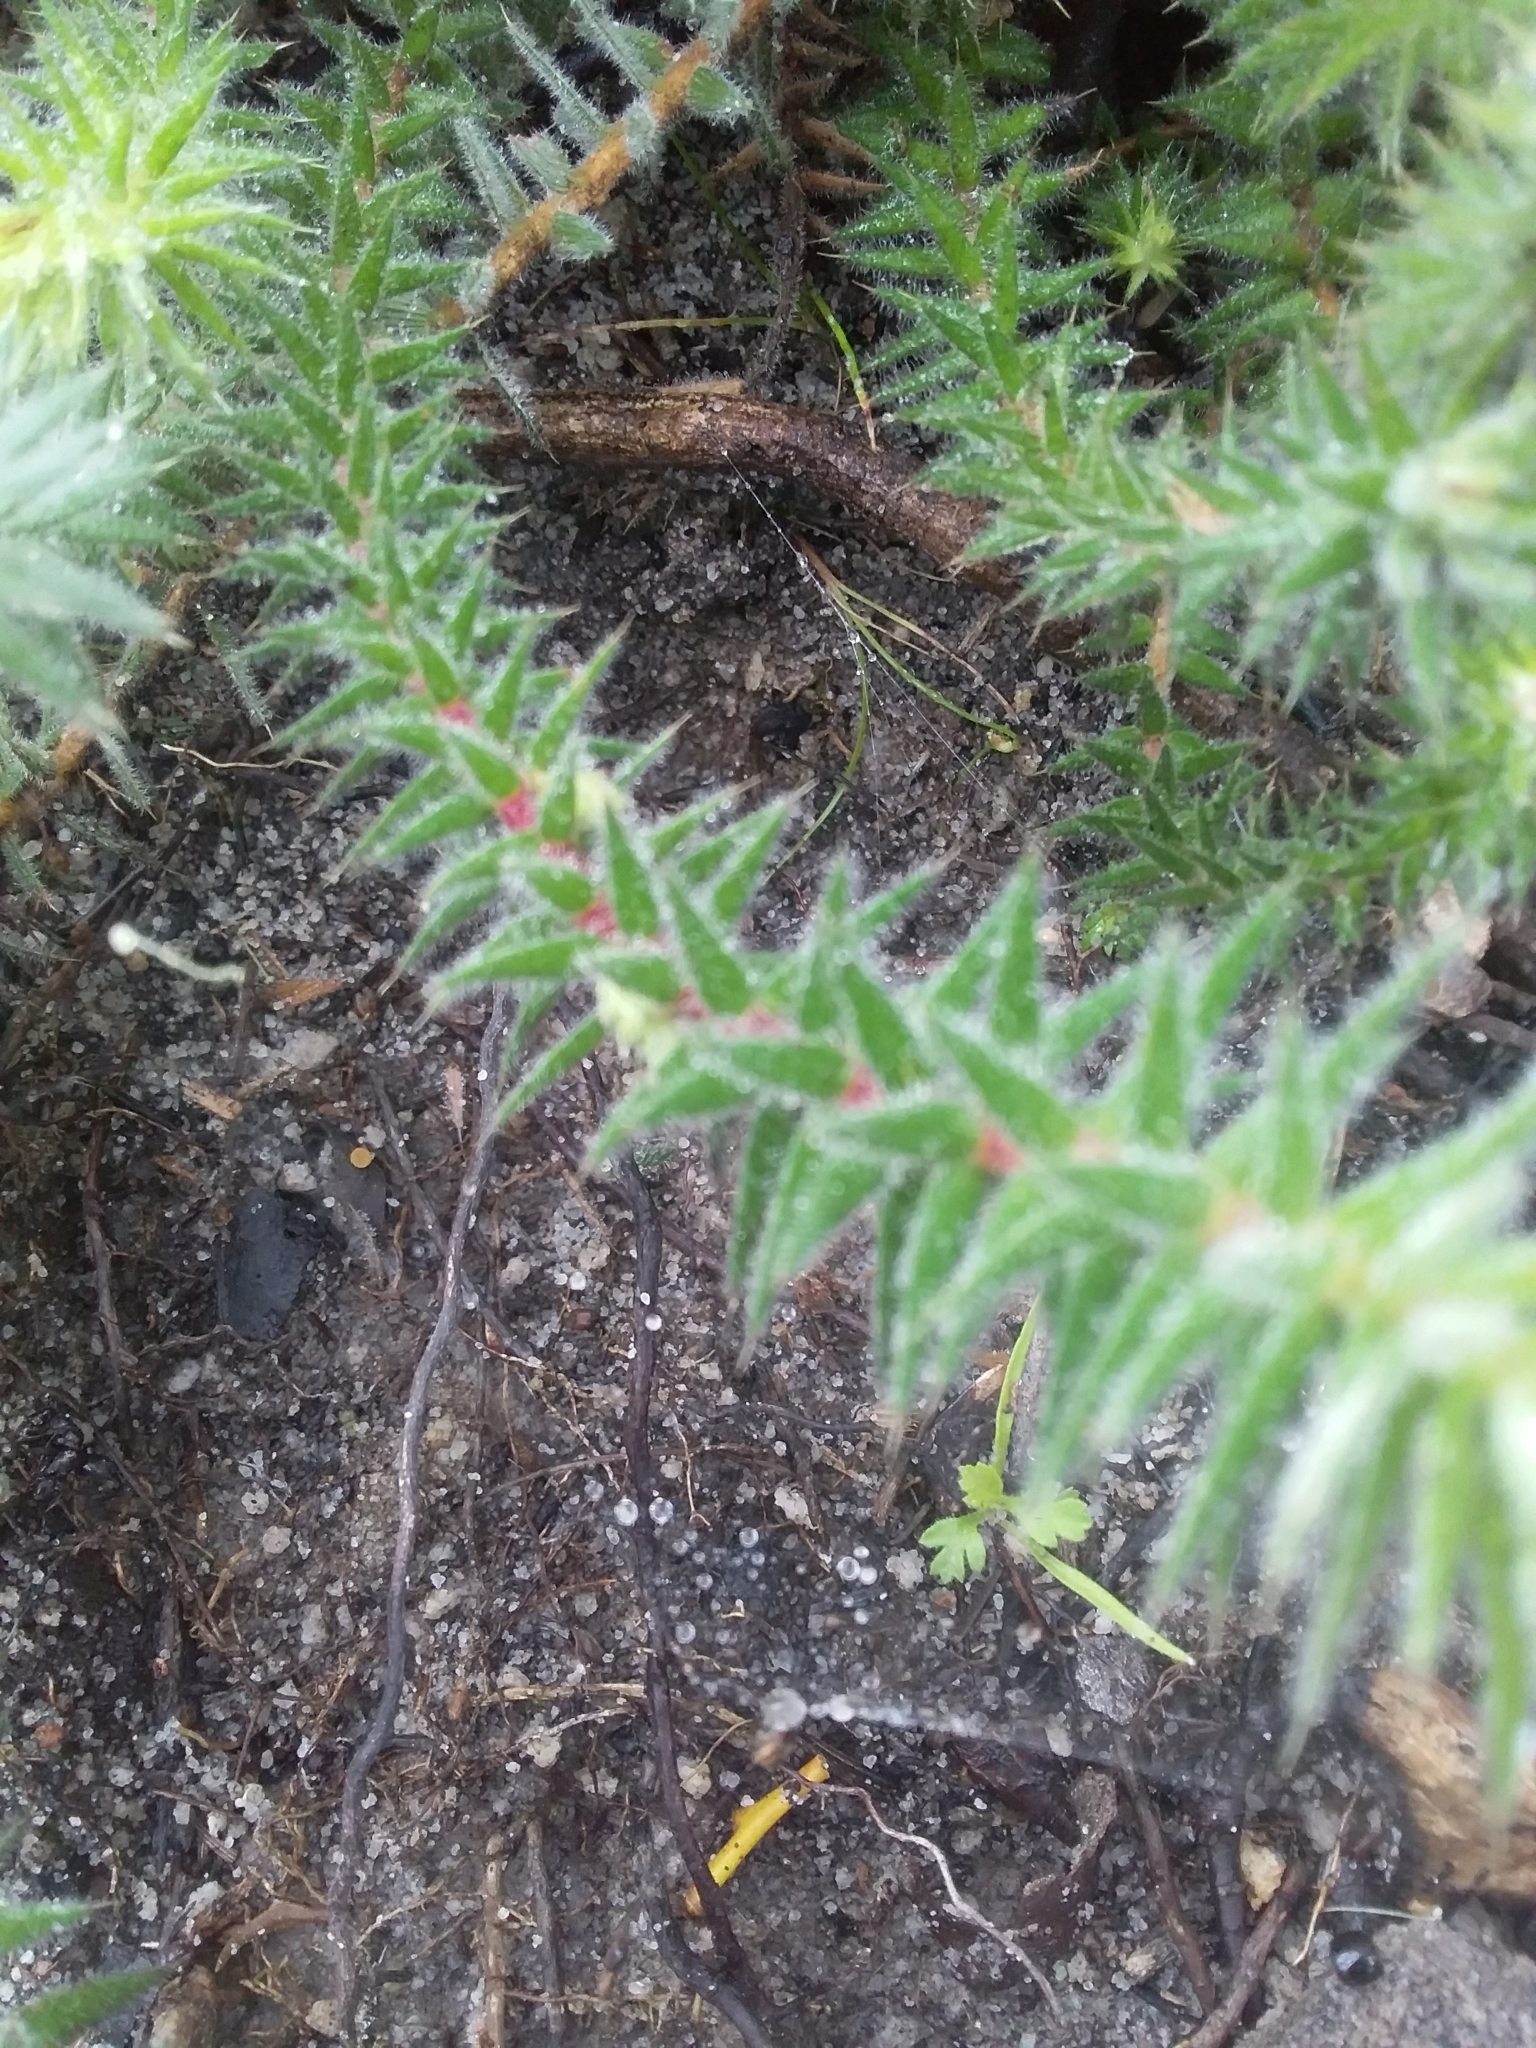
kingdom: Plantae
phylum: Tracheophyta
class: Magnoliopsida
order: Ericales
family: Ericaceae
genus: Acrotriche
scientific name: Acrotriche serrulata
